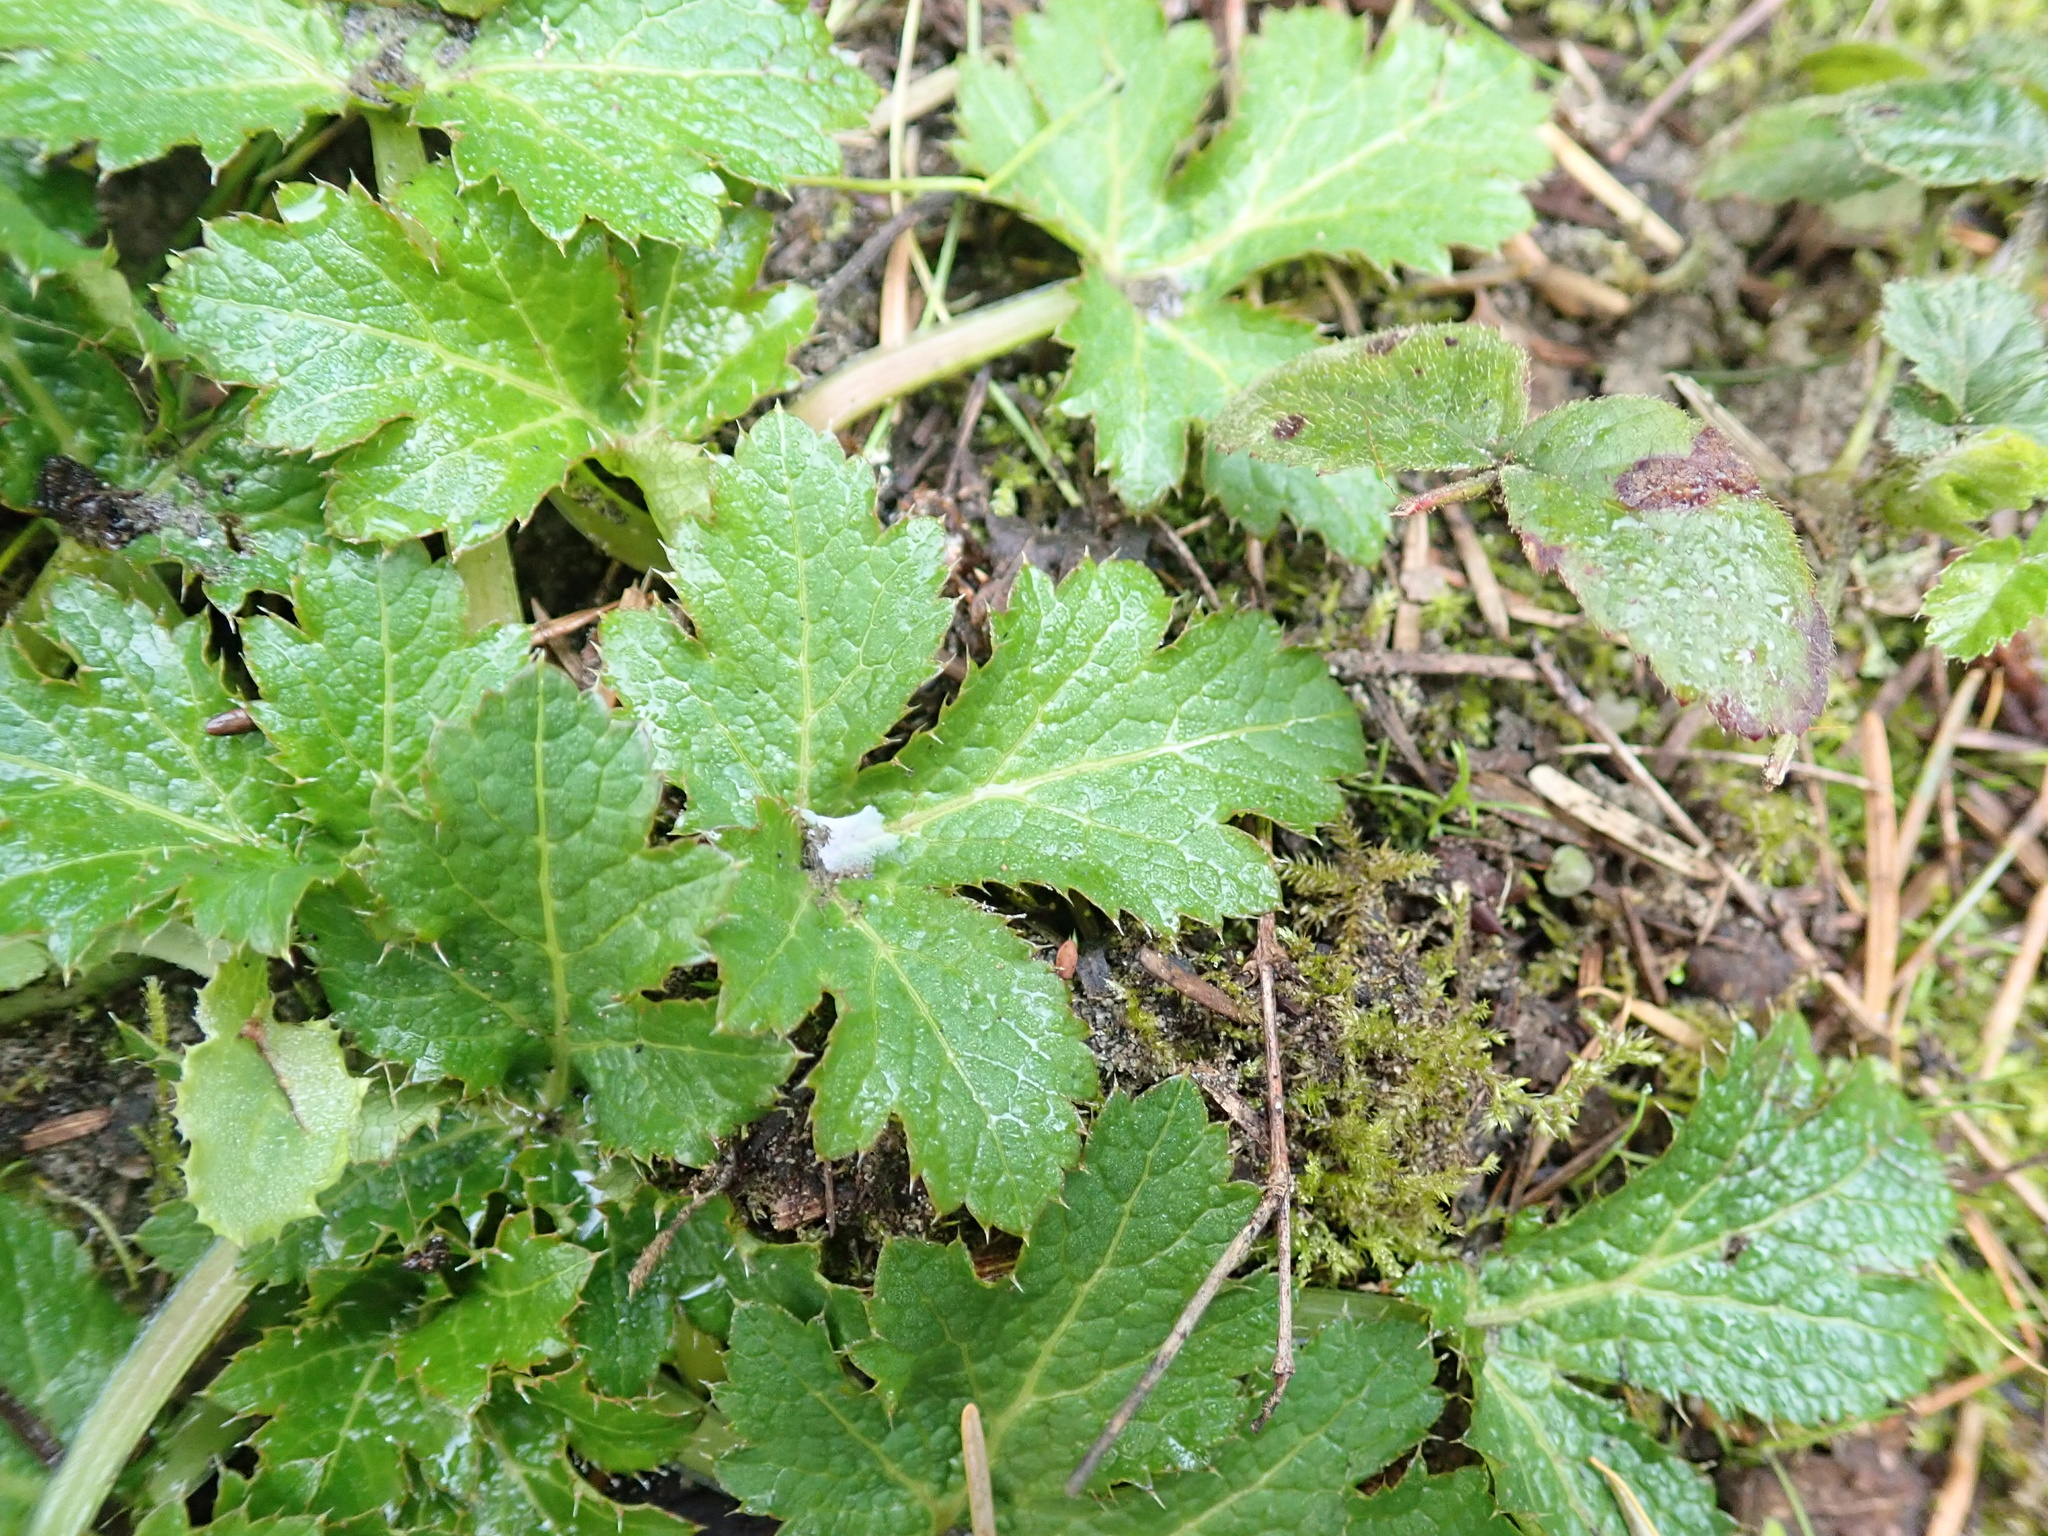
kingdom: Plantae
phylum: Tracheophyta
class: Magnoliopsida
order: Apiales
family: Apiaceae
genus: Sanicula
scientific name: Sanicula crassicaulis
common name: Western snakeroot
